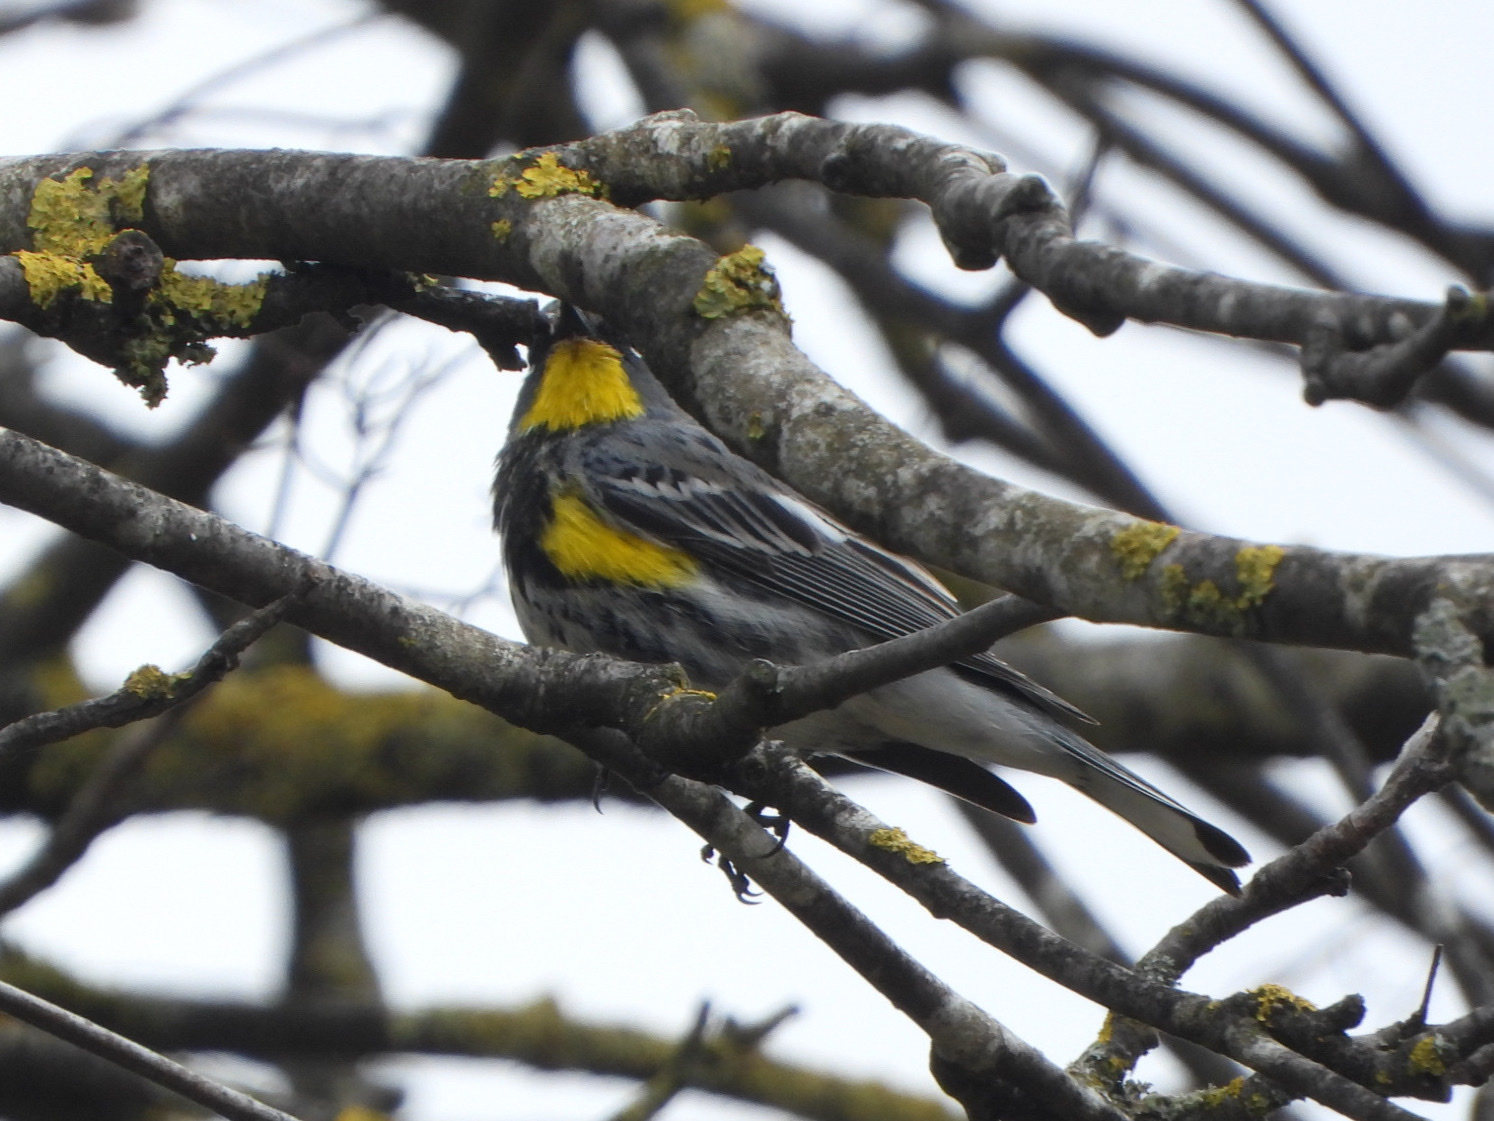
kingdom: Animalia
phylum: Chordata
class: Aves
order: Passeriformes
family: Parulidae
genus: Setophaga
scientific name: Setophaga auduboni
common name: Audubon's warbler
